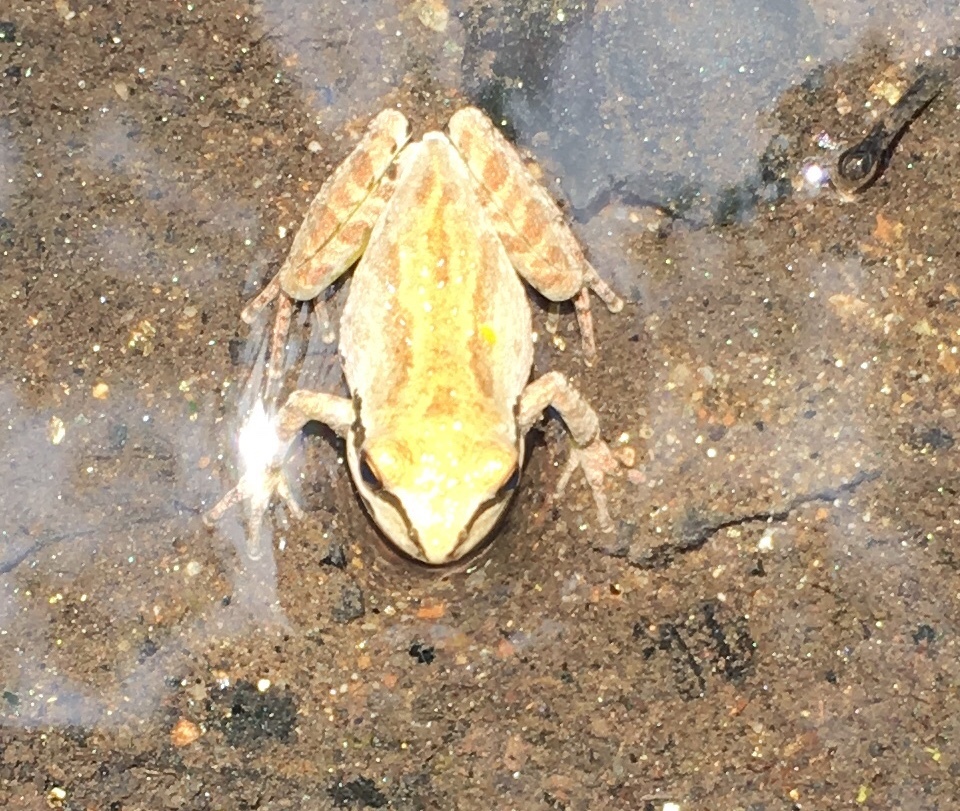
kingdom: Animalia
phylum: Chordata
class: Amphibia
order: Anura
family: Hylidae
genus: Pseudacris
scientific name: Pseudacris regilla
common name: Pacific chorus frog
